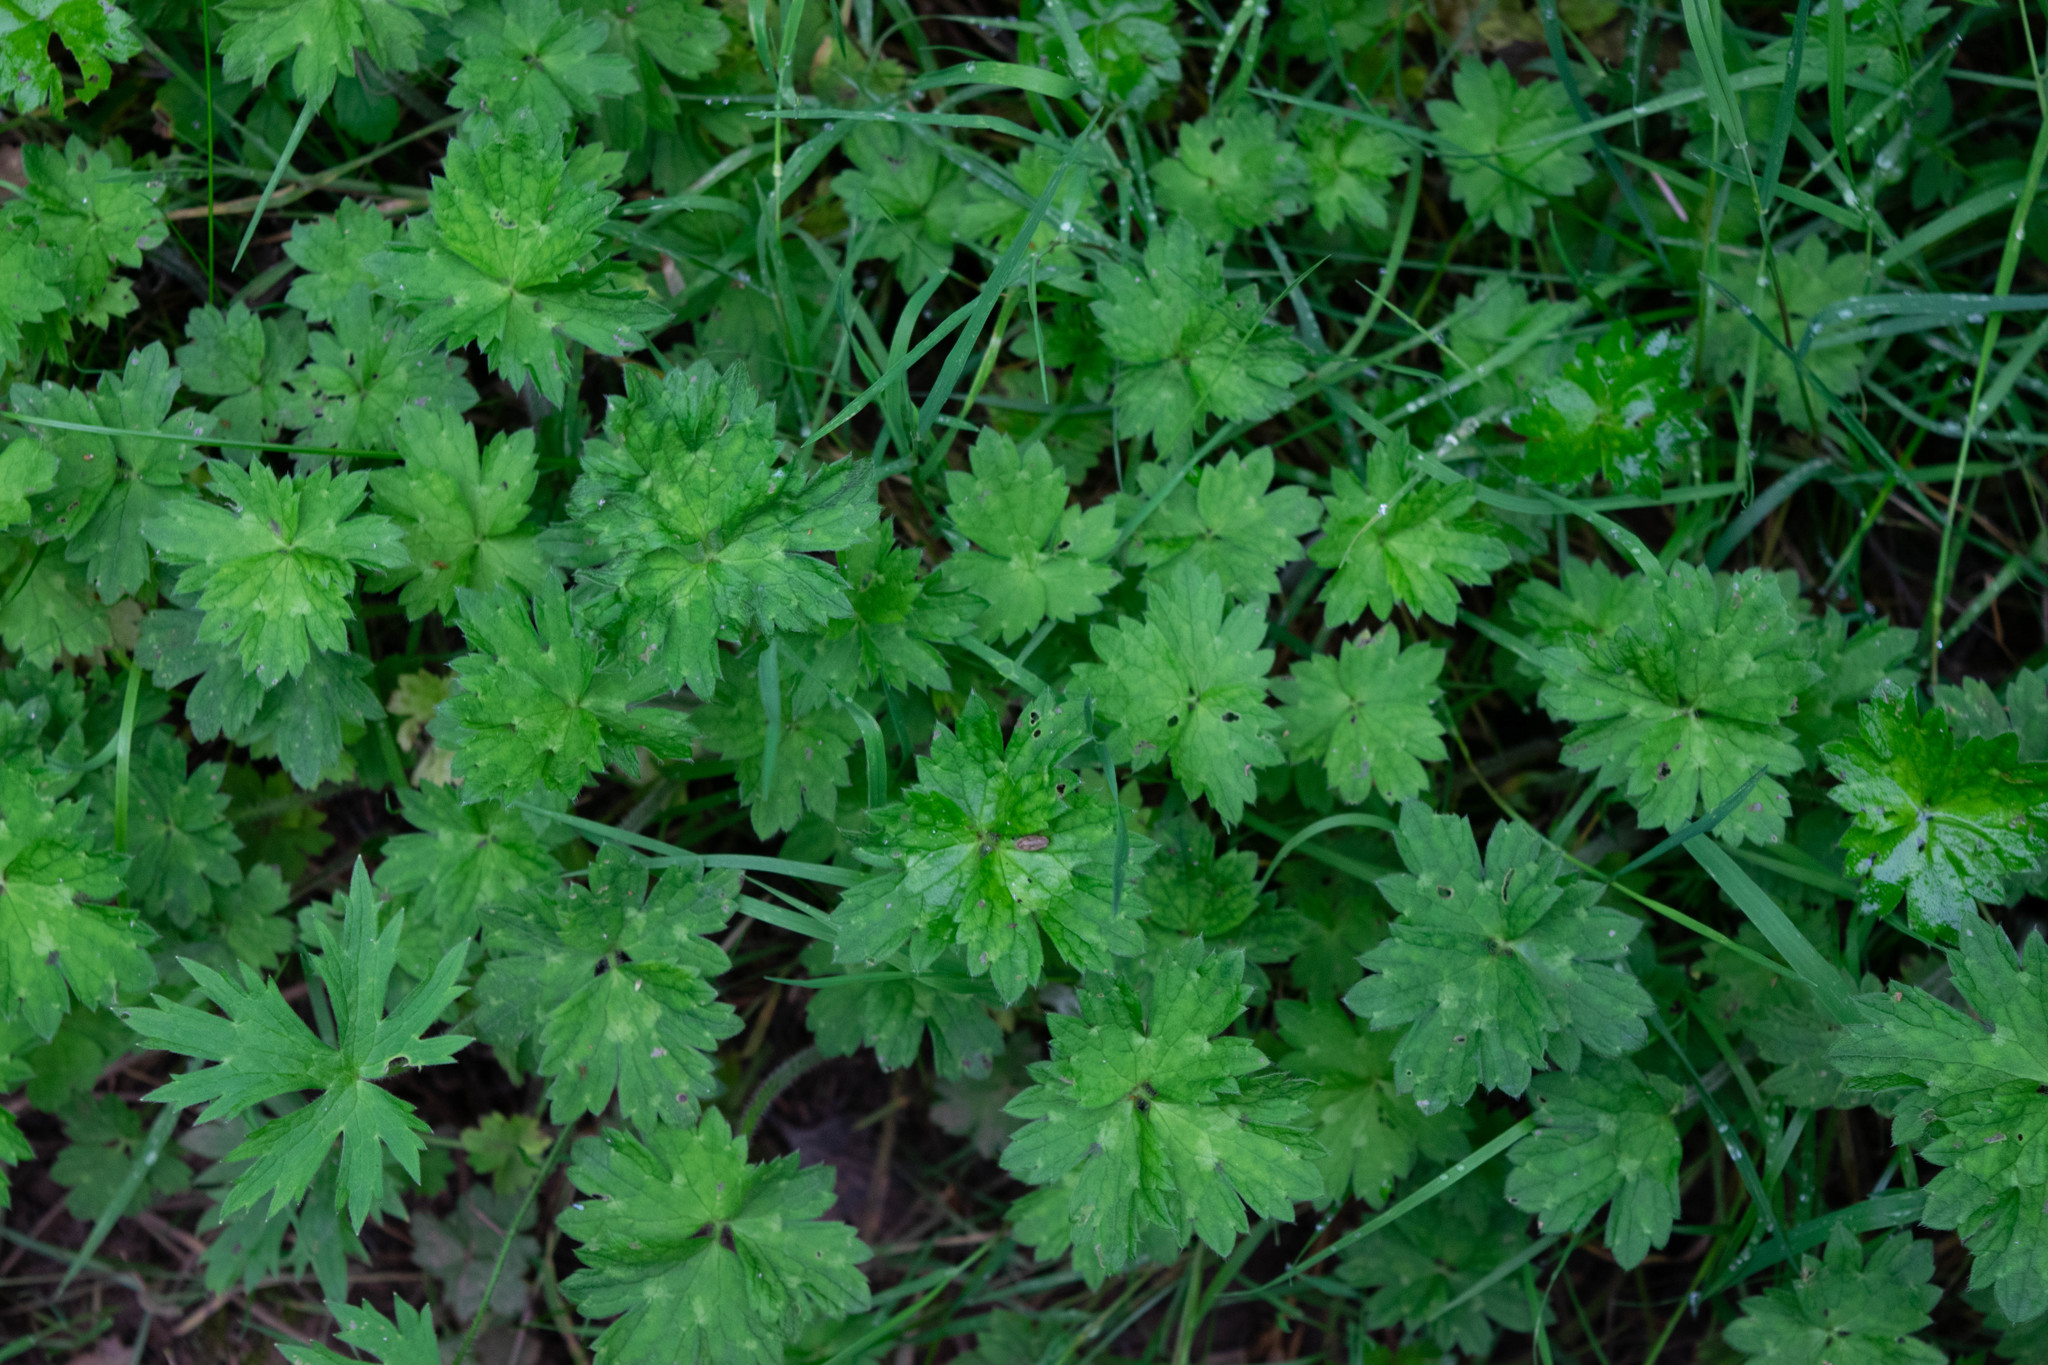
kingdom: Plantae
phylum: Tracheophyta
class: Magnoliopsida
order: Ranunculales
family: Ranunculaceae
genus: Ranunculus
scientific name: Ranunculus repens
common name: Creeping buttercup
